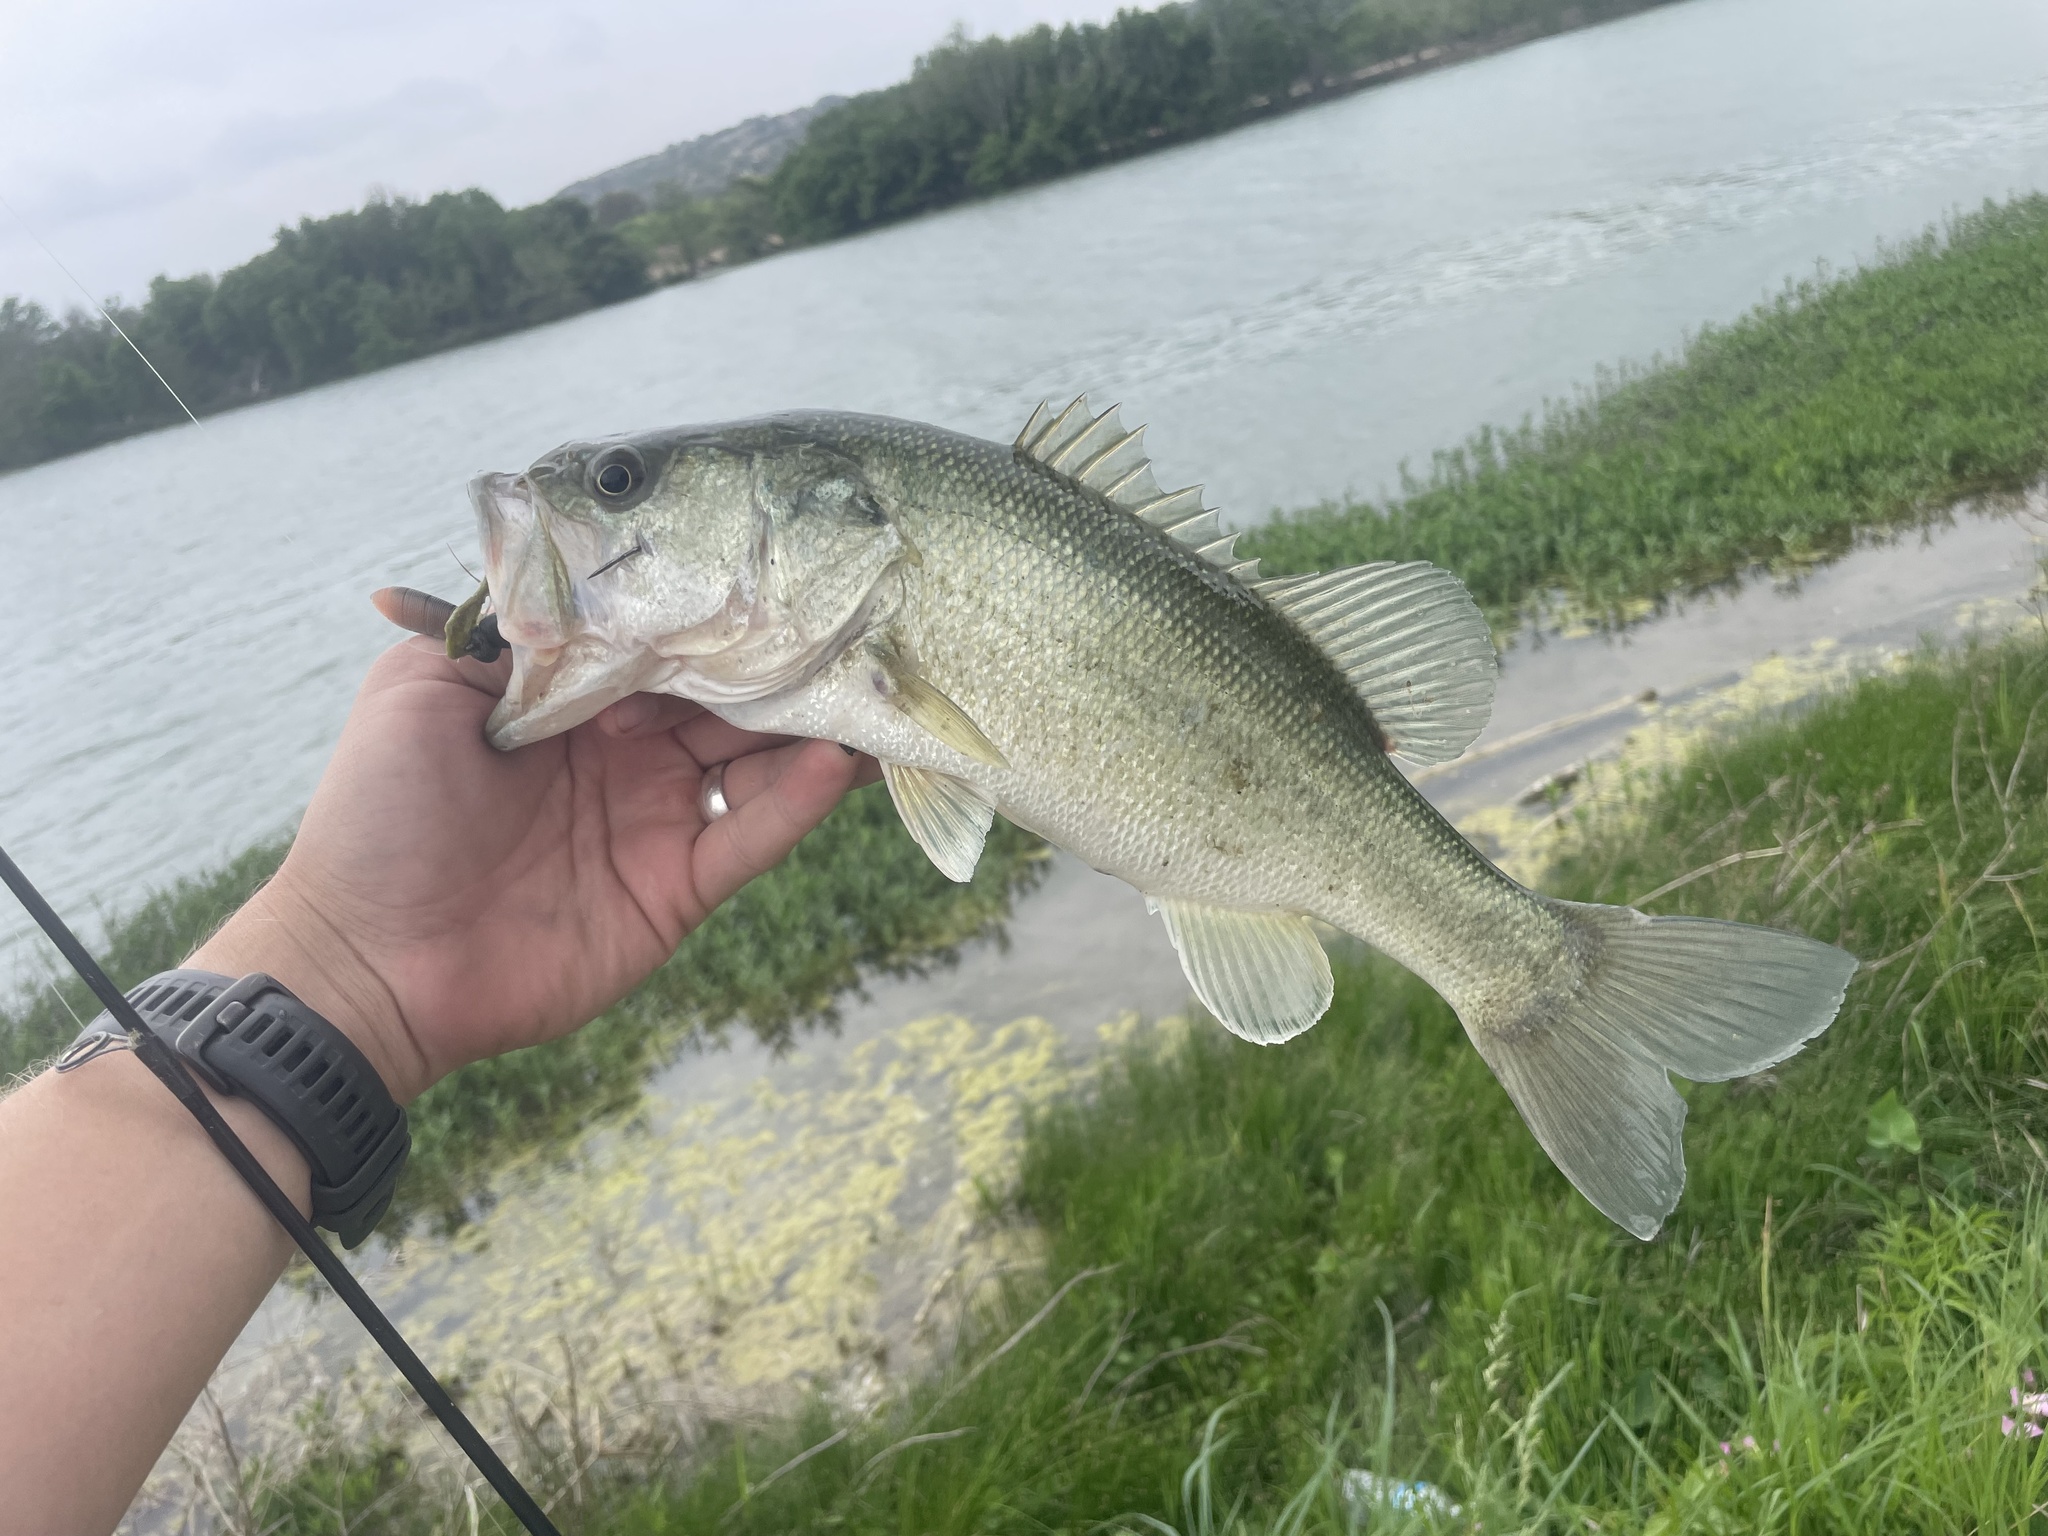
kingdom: Animalia
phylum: Chordata
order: Perciformes
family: Centrarchidae
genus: Micropterus
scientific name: Micropterus
